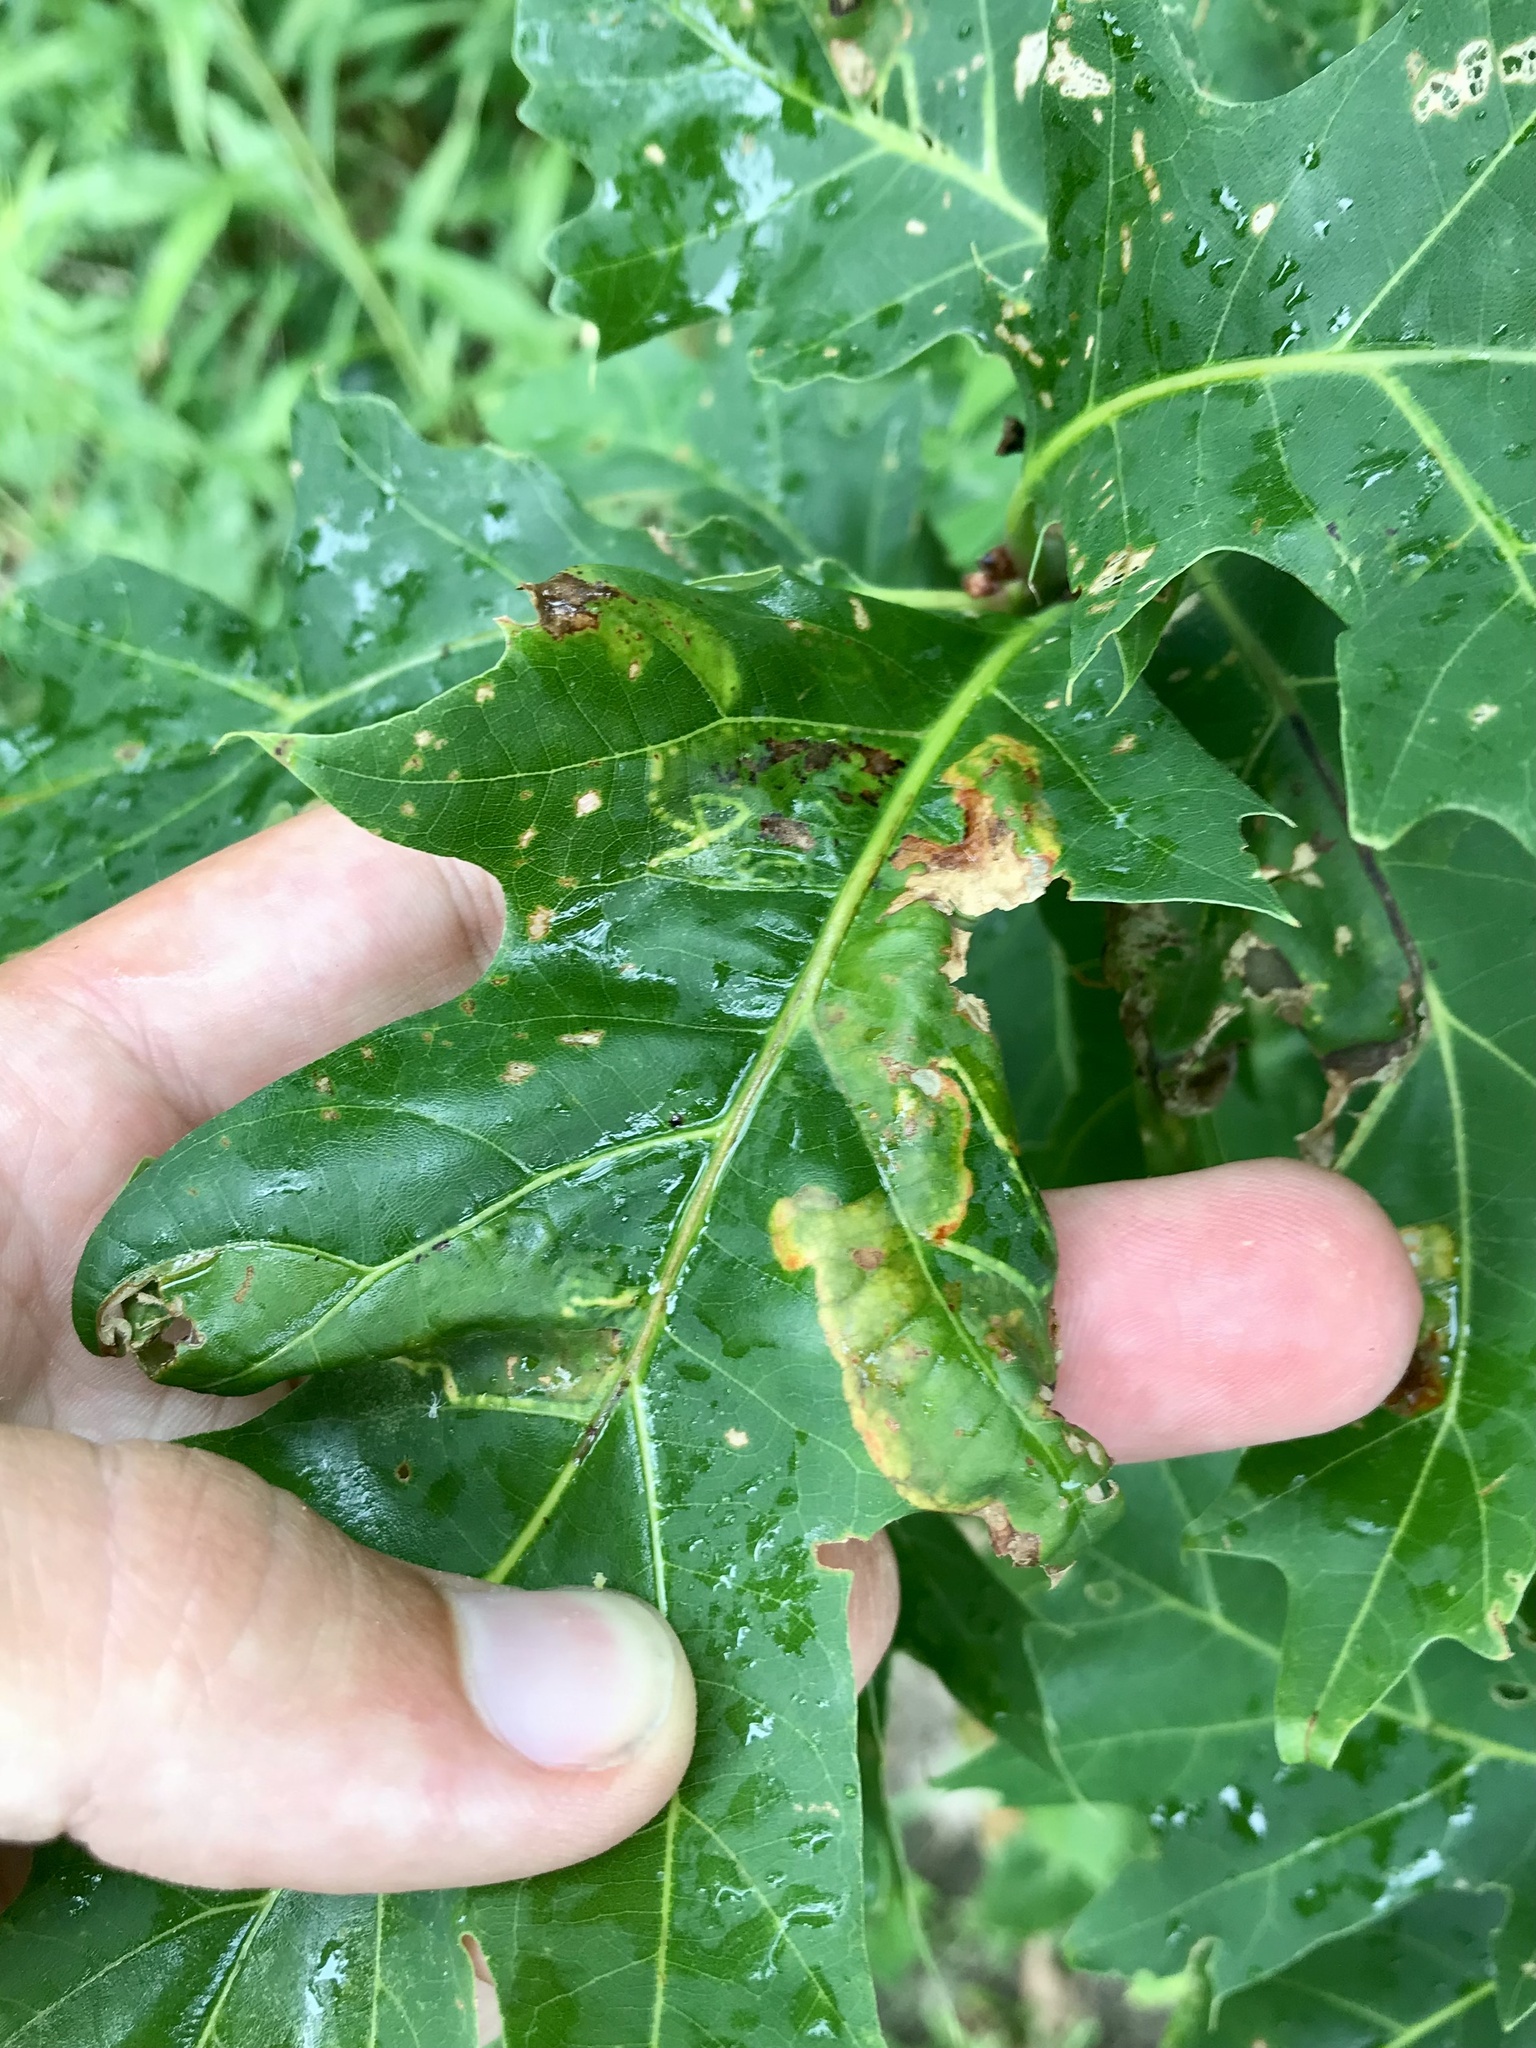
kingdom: Animalia
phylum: Arthropoda
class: Insecta
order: Lepidoptera
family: Gracillariidae
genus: Acrocercops
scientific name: Acrocercops albinatella
